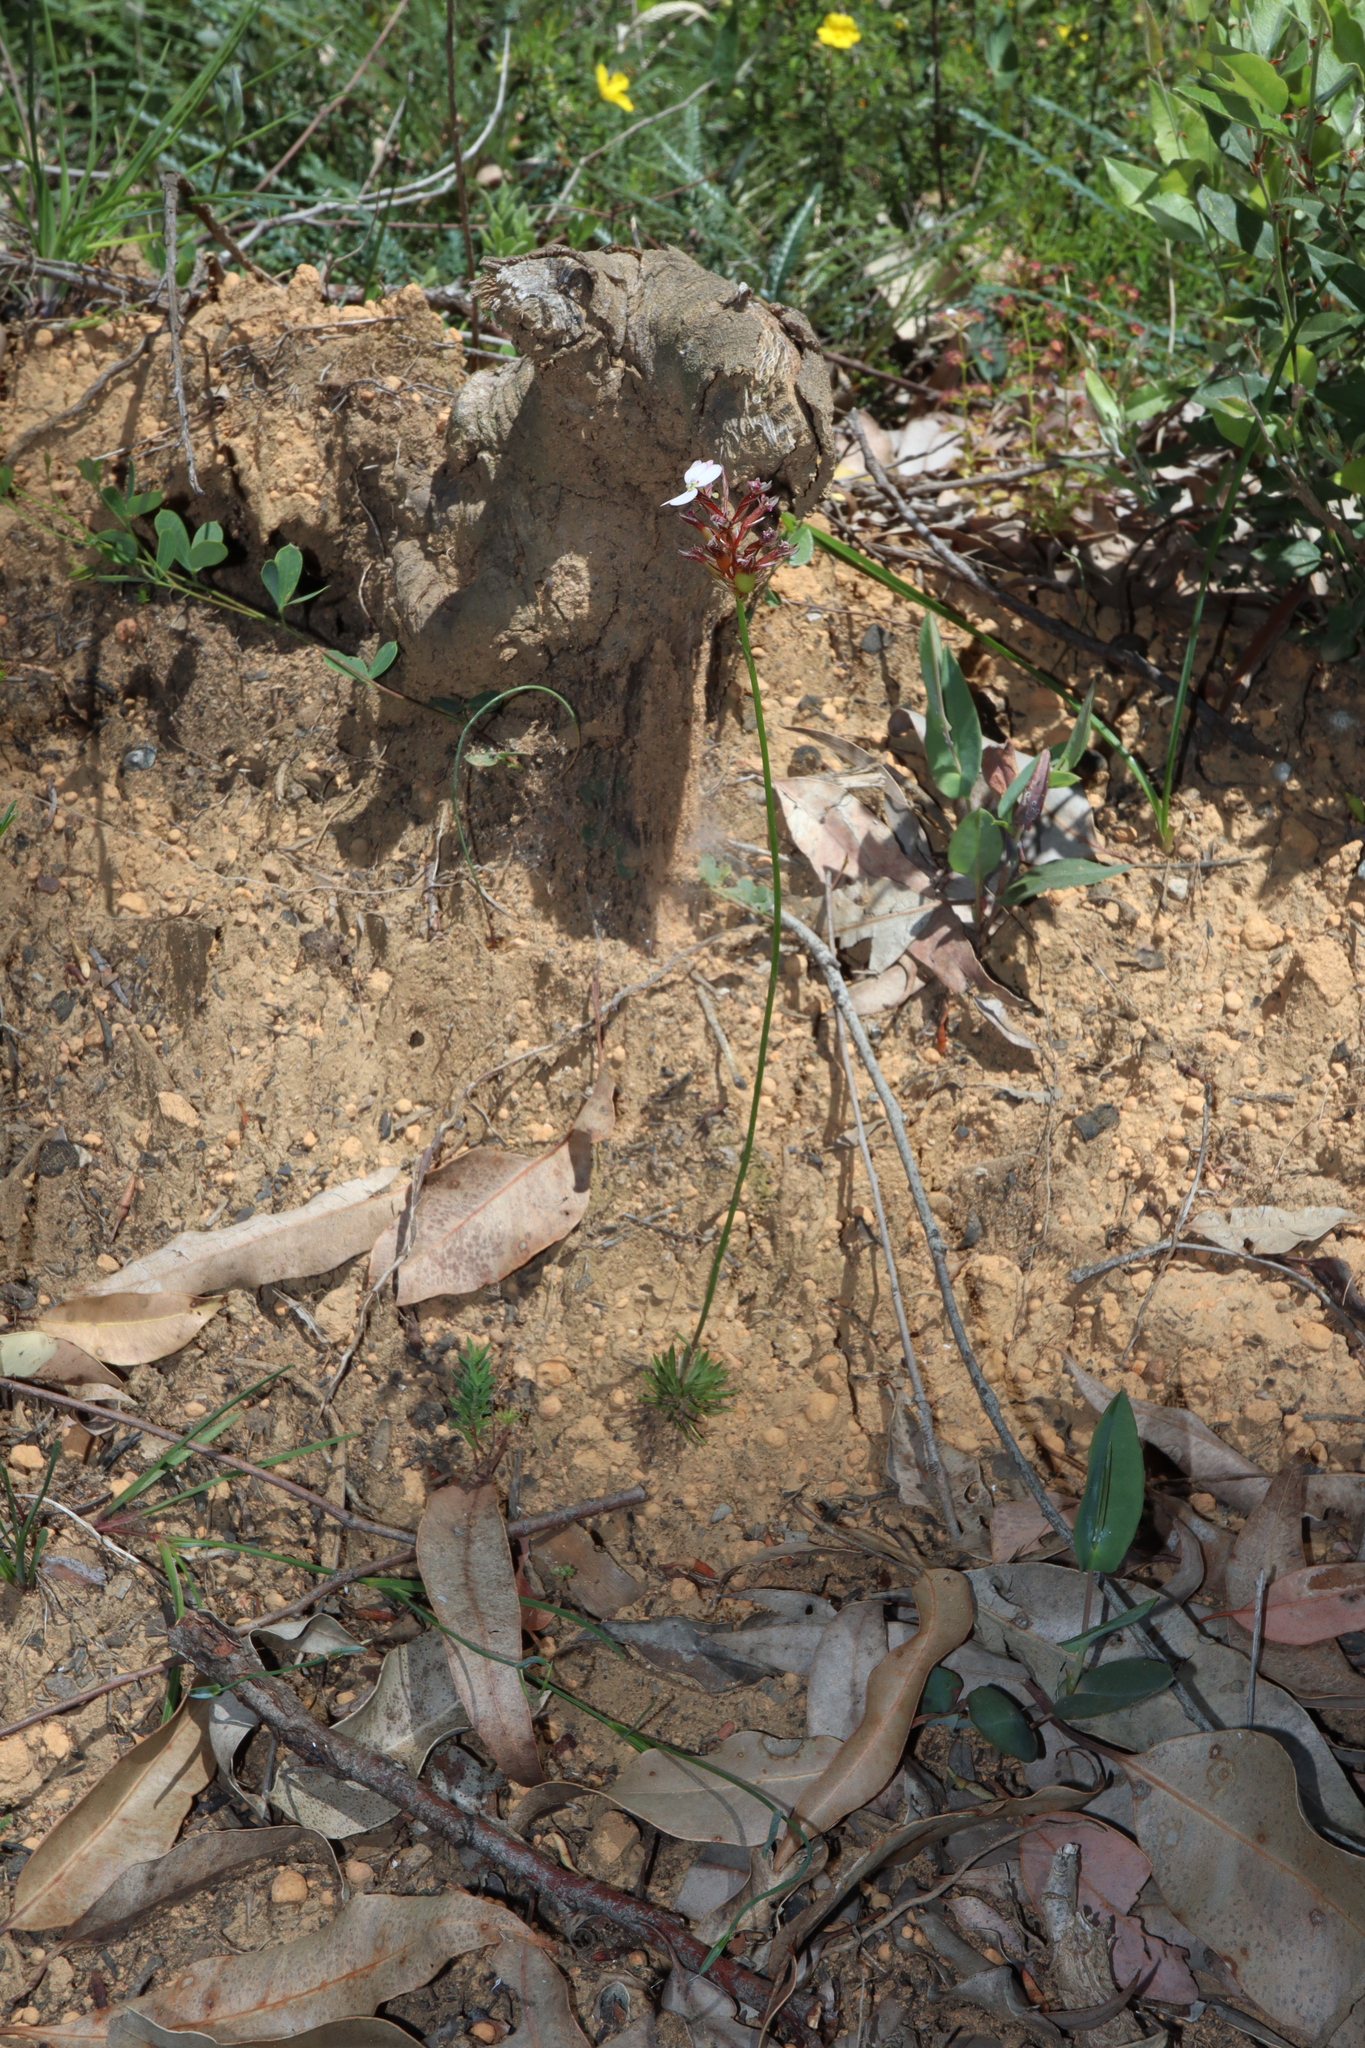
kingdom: Plantae
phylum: Tracheophyta
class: Magnoliopsida
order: Asterales
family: Stylidiaceae
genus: Stylidium
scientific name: Stylidium scariosum
